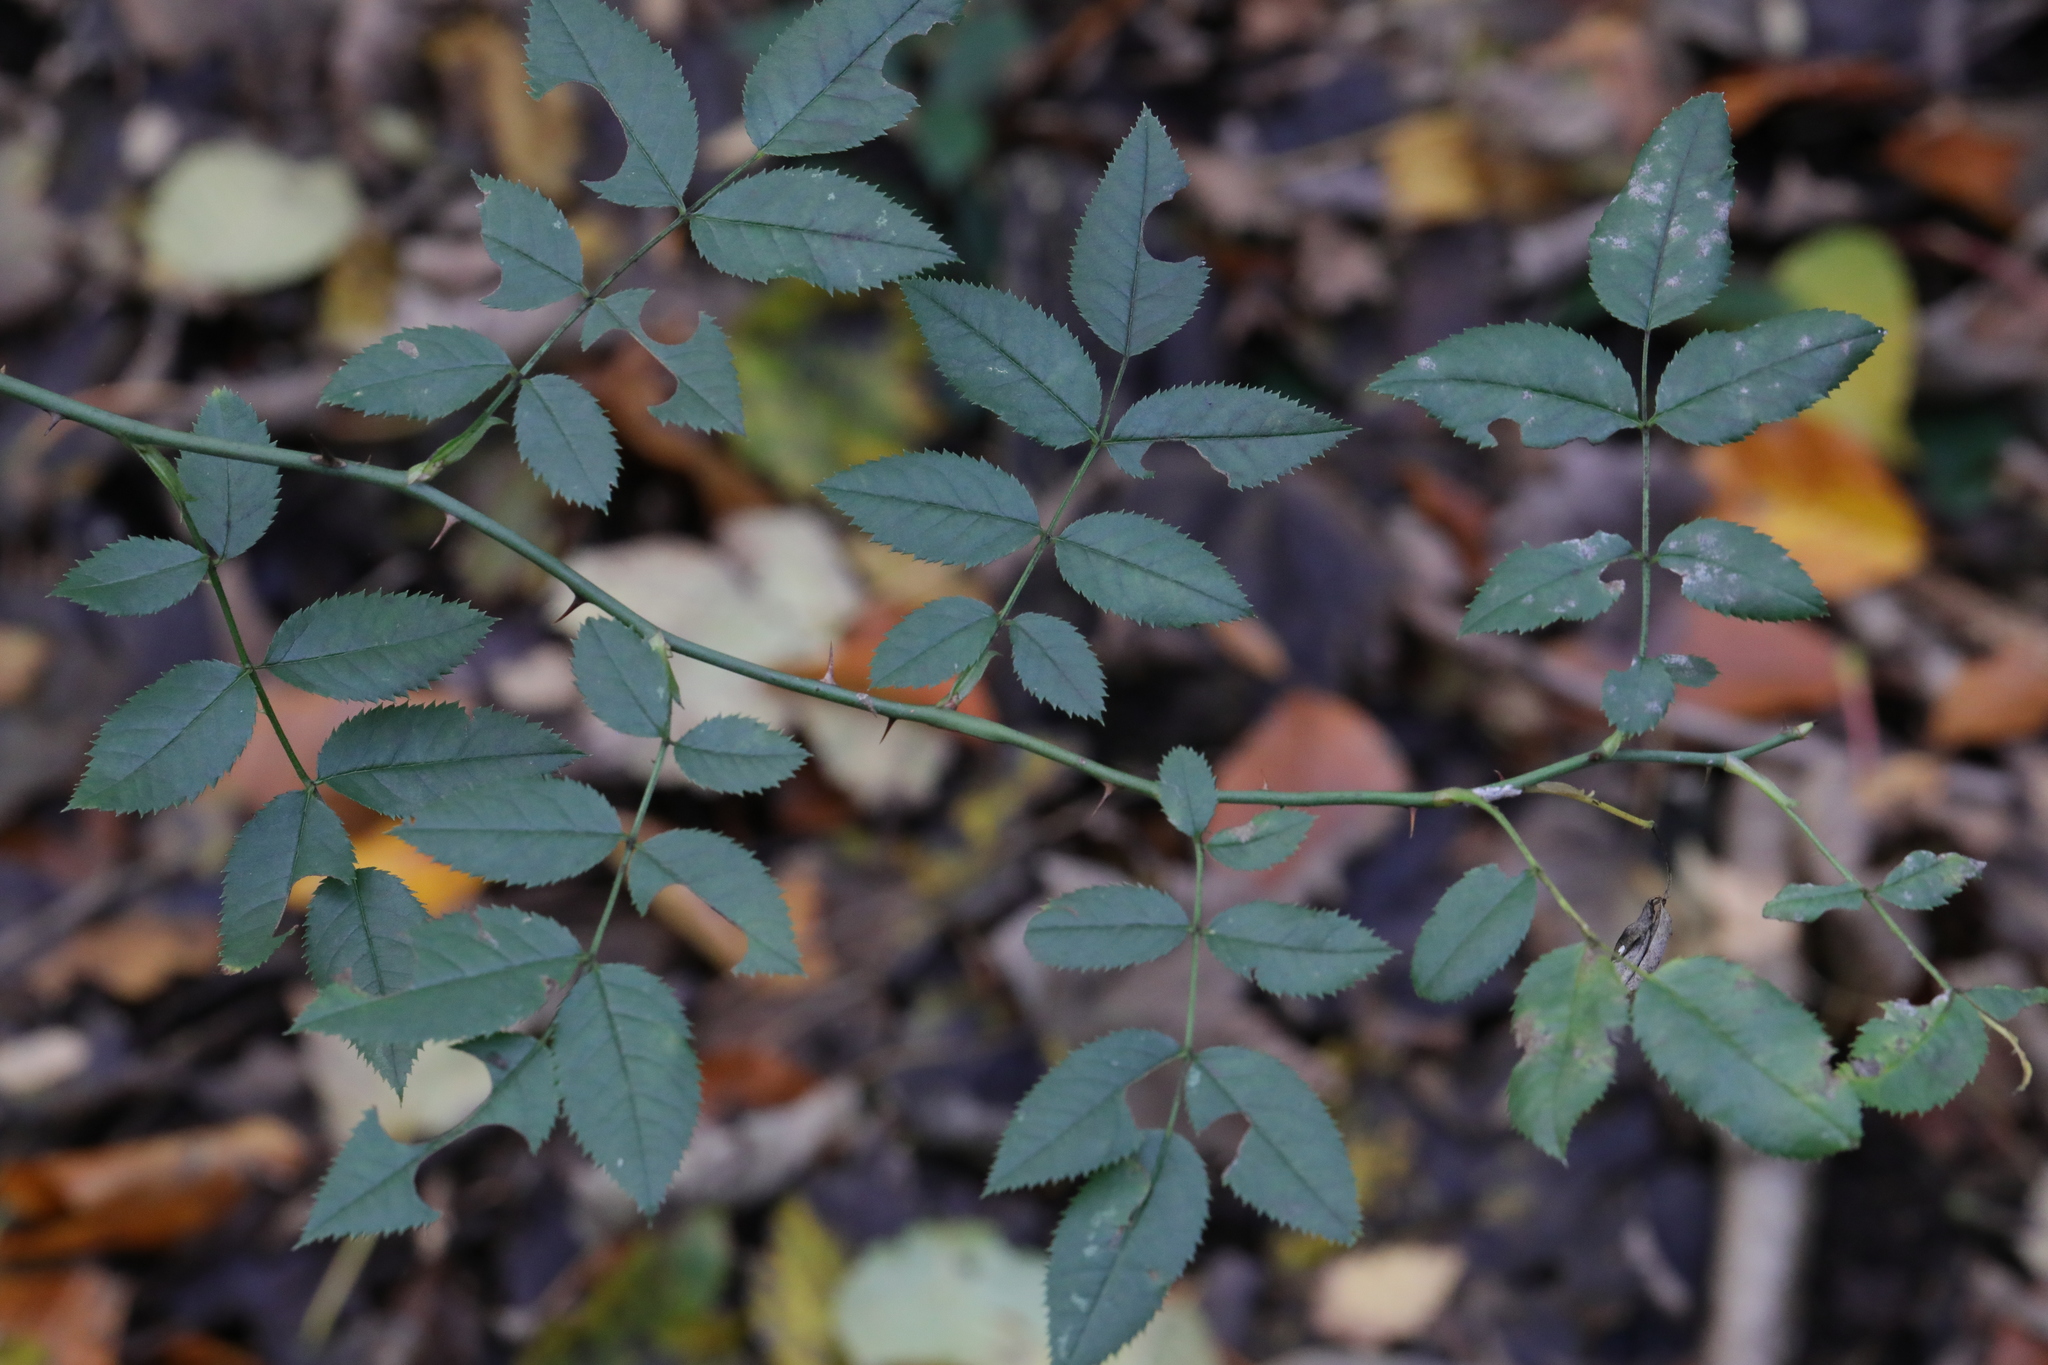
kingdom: Plantae
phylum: Tracheophyta
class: Magnoliopsida
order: Rosales
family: Rosaceae
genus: Rosa
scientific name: Rosa canina
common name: Dog rose
